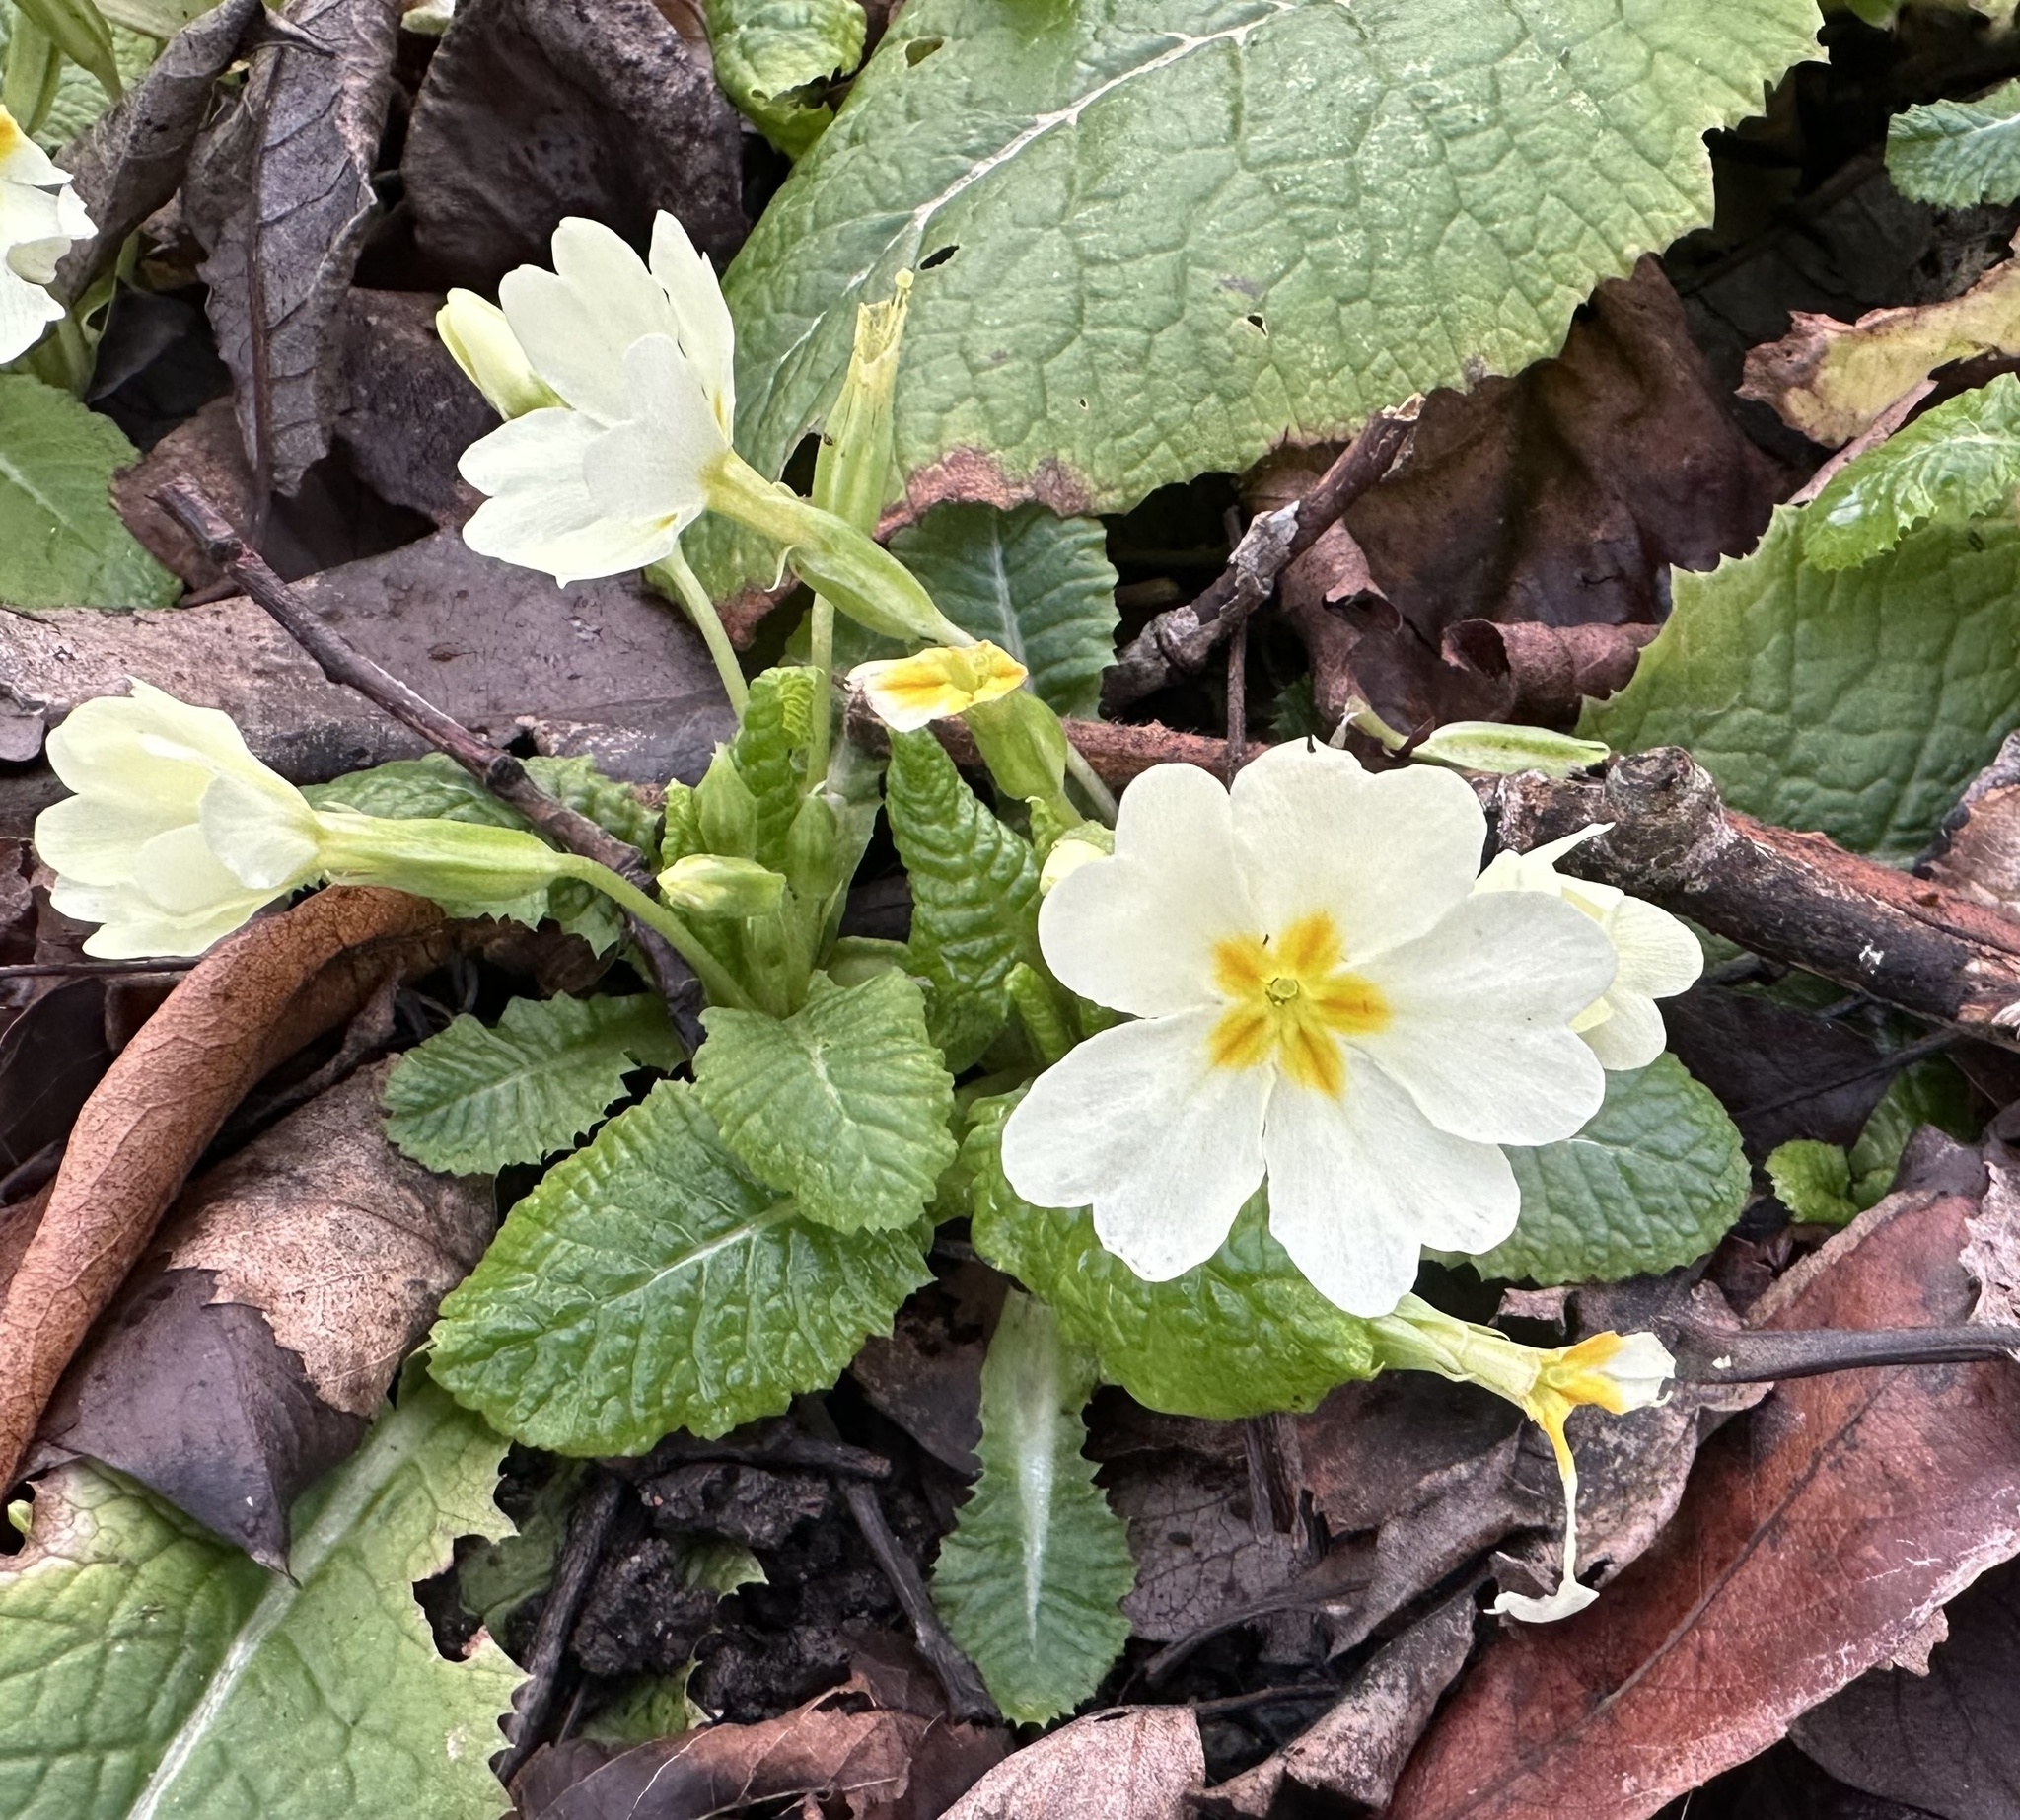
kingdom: Plantae
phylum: Tracheophyta
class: Magnoliopsida
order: Ericales
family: Primulaceae
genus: Primula
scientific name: Primula vulgaris
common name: Primrose
